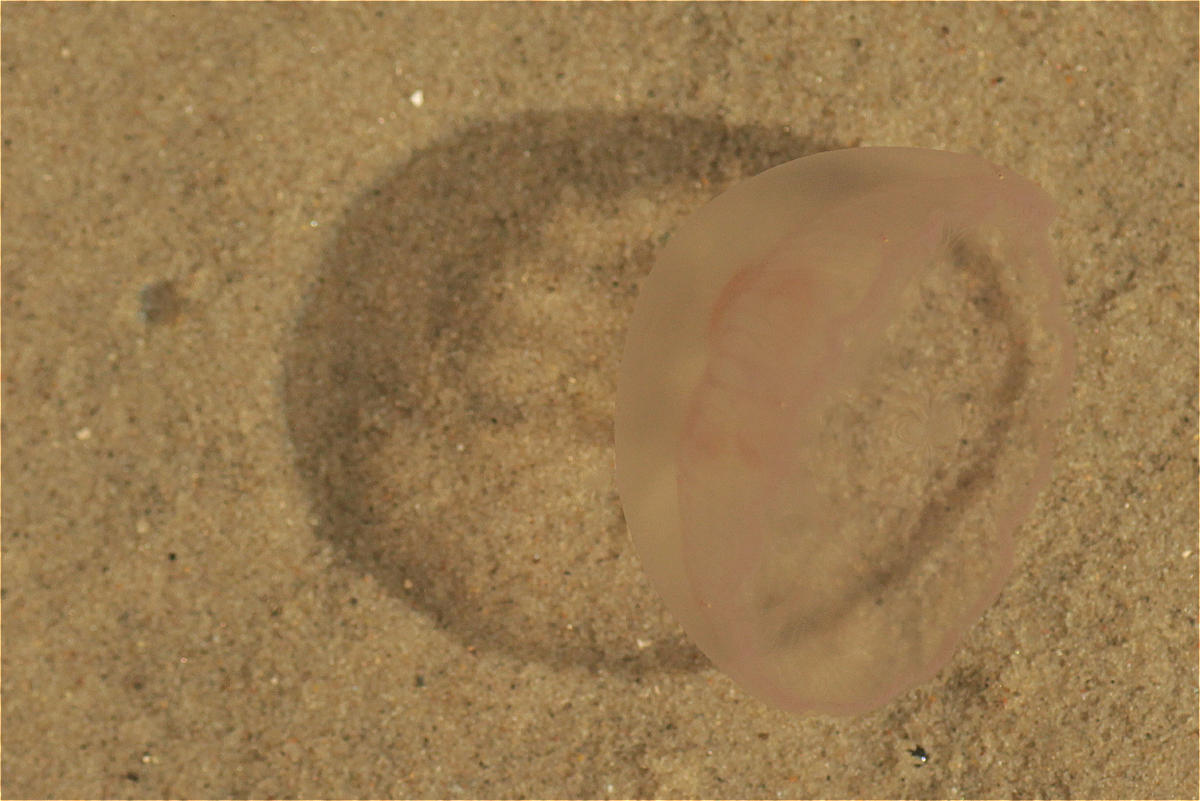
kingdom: Animalia
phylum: Cnidaria
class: Scyphozoa
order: Semaeostomeae
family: Ulmaridae
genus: Aurelia
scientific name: Aurelia aurita
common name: Moon jellyfish
